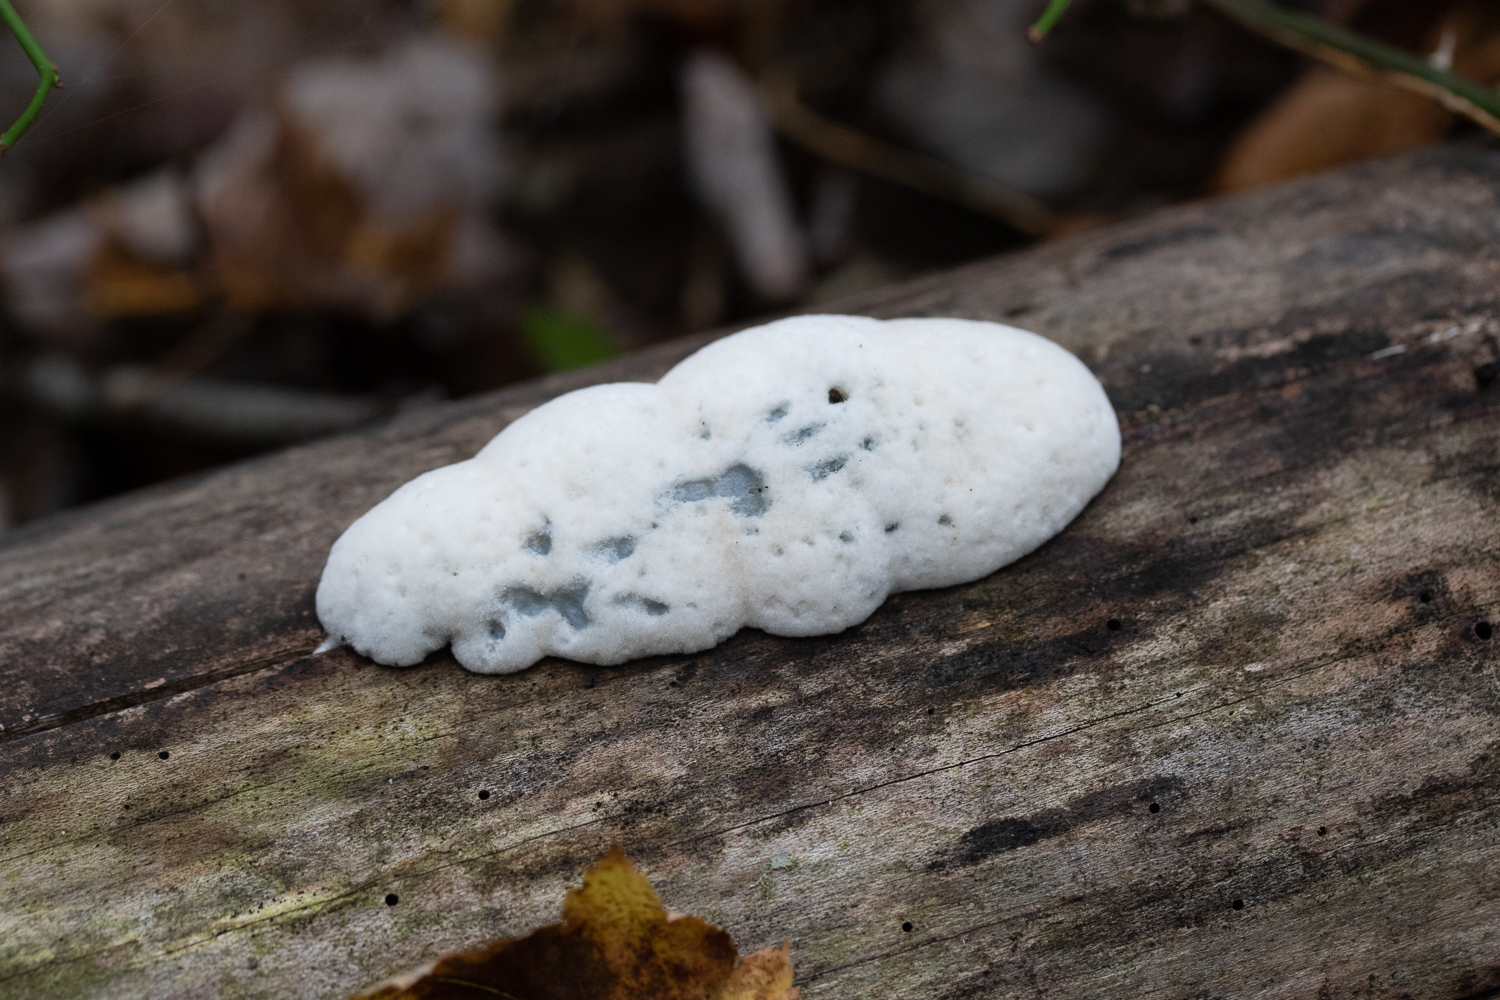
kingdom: Fungi
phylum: Basidiomycota
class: Agaricomycetes
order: Polyporales
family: Polyporaceae
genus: Cyanosporus
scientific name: Cyanosporus caesius
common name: Blue cheese polypore
